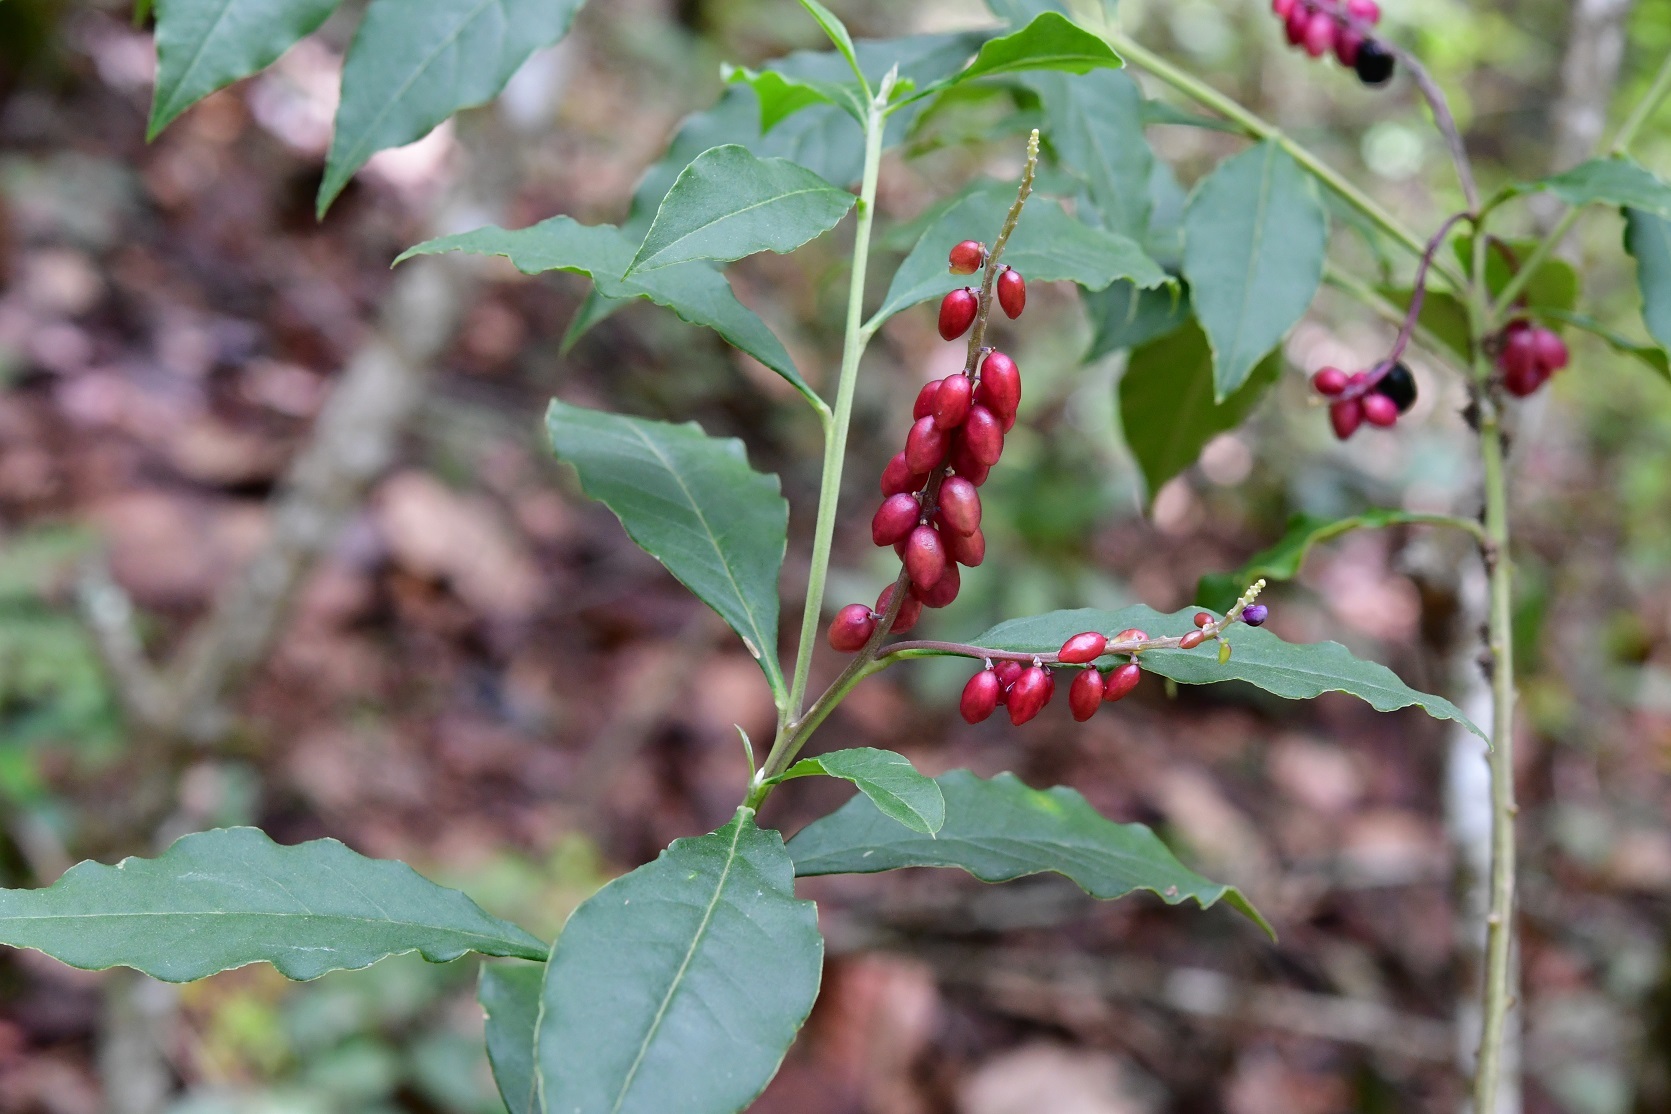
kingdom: Plantae
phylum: Tracheophyta
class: Magnoliopsida
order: Fabales
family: Polygalaceae
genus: Monnina
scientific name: Monnina xalapensis
